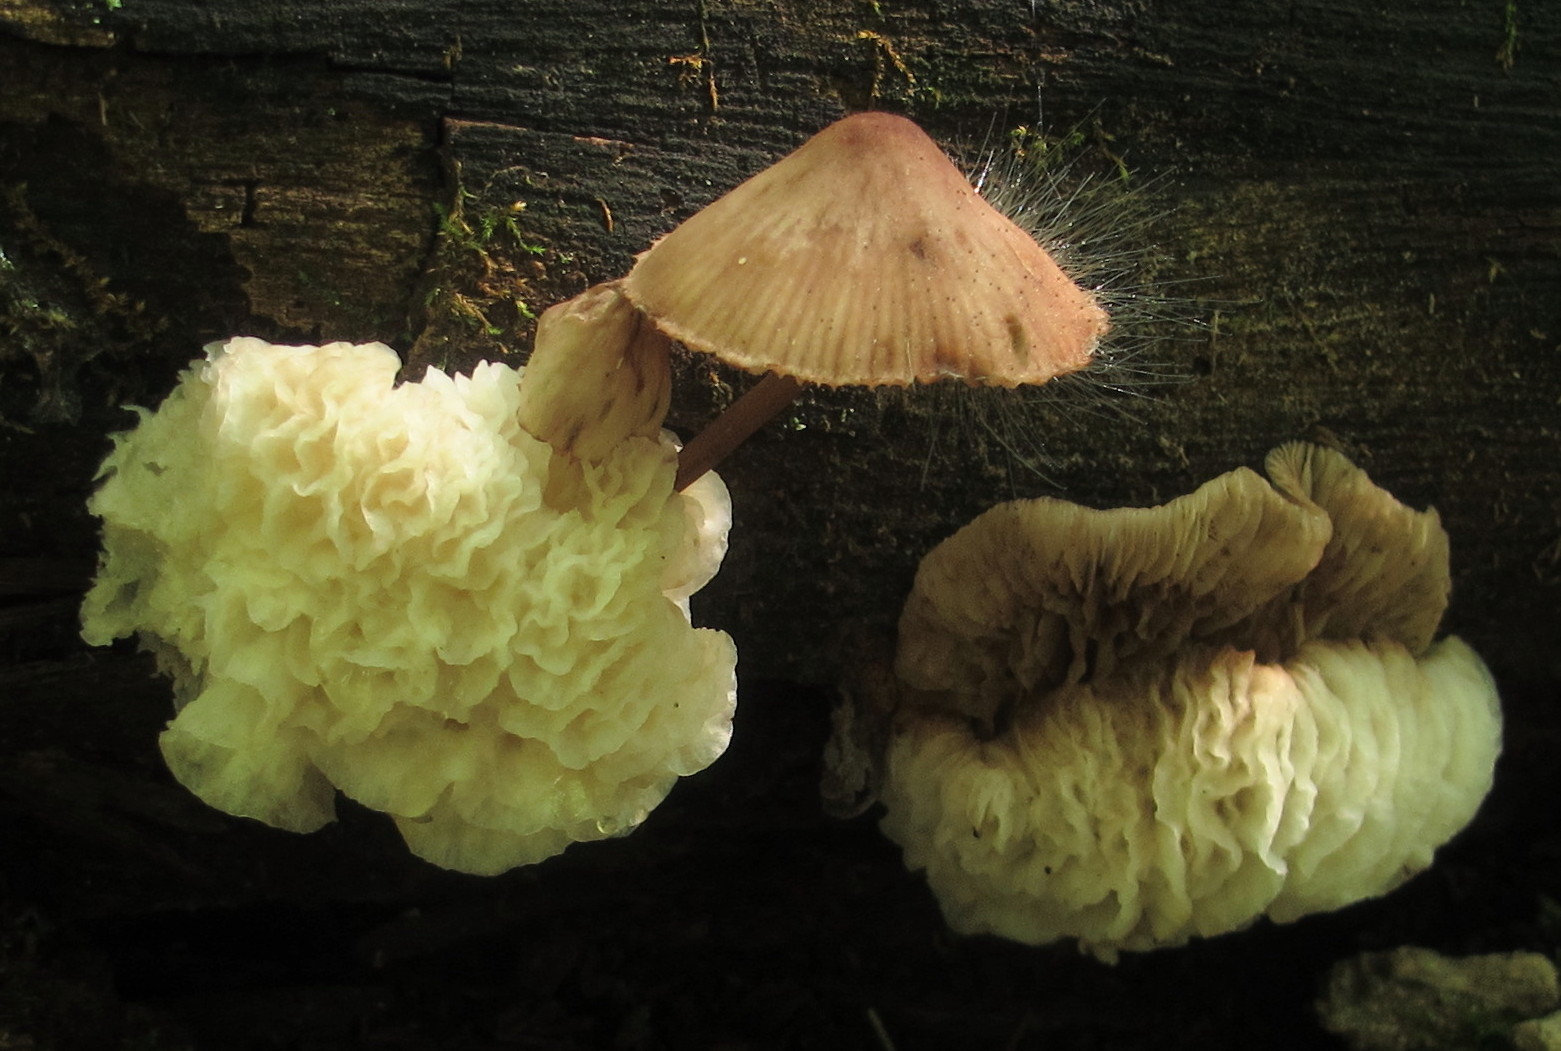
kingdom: Fungi
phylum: Ascomycota
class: Sordariomycetes
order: Hypocreales
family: Bionectriaceae
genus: Nectriopsis
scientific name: Nectriopsis tremellicola
